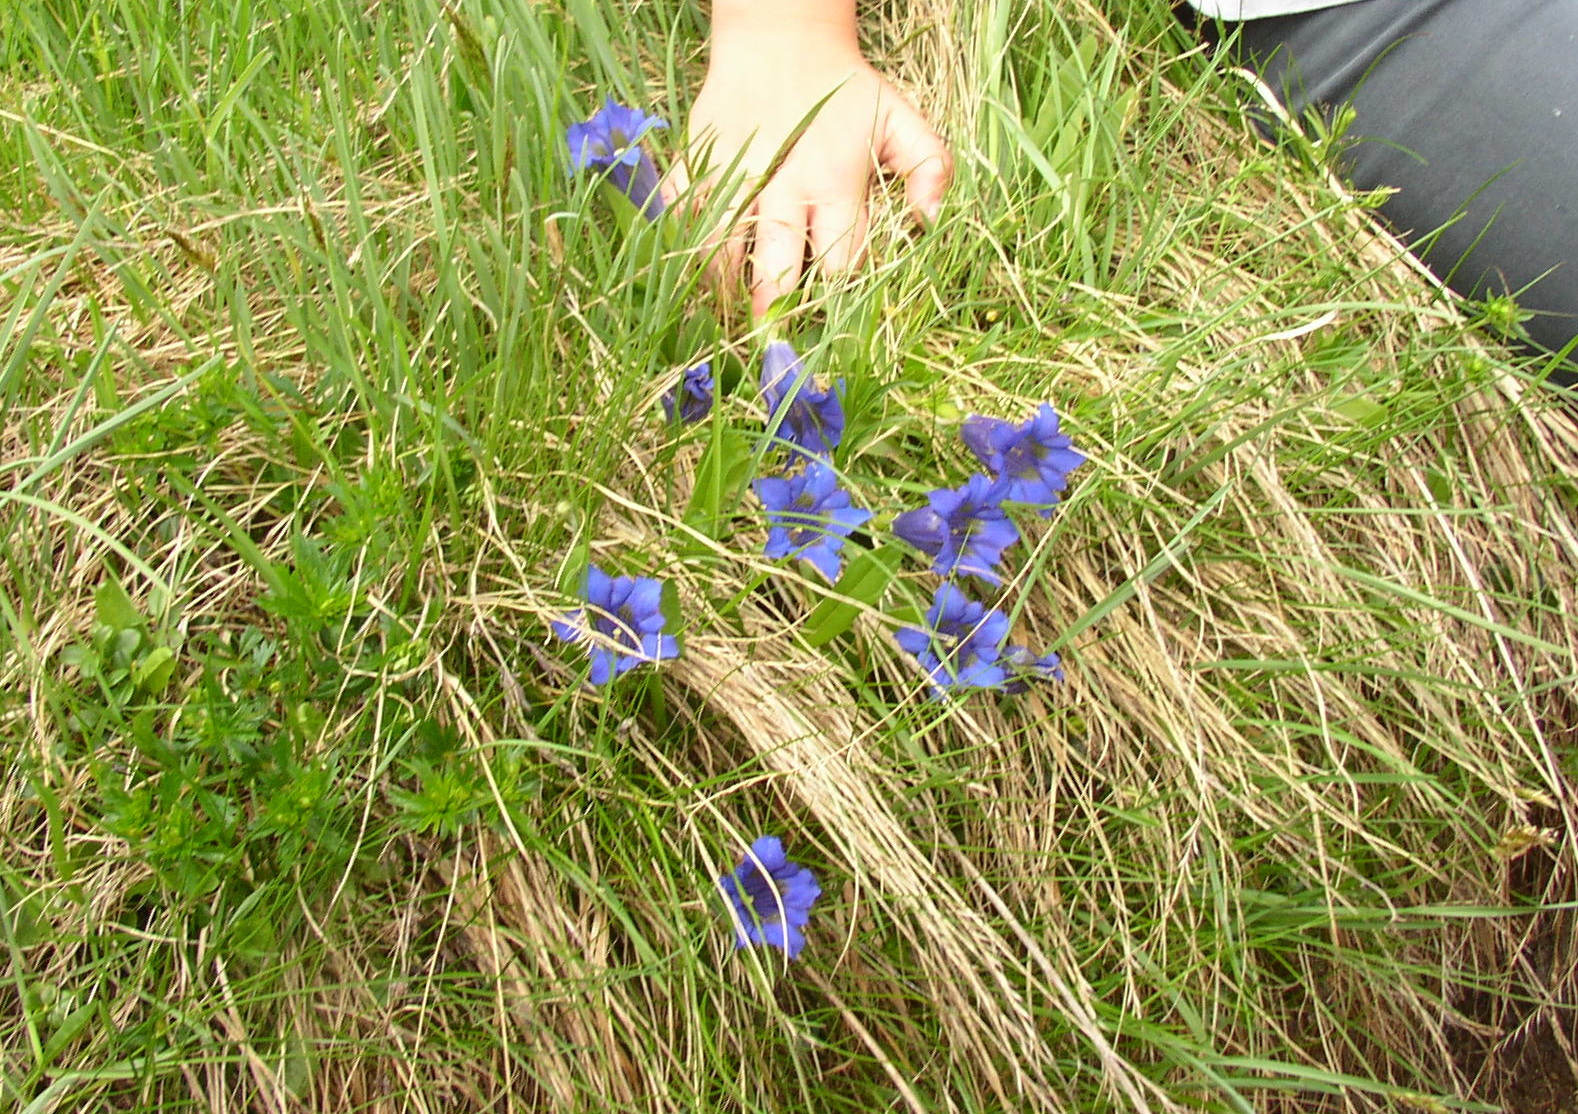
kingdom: Plantae
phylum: Tracheophyta
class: Magnoliopsida
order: Gentianales
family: Gentianaceae
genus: Gentiana
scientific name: Gentiana acaulis
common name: Trumpet gentian
